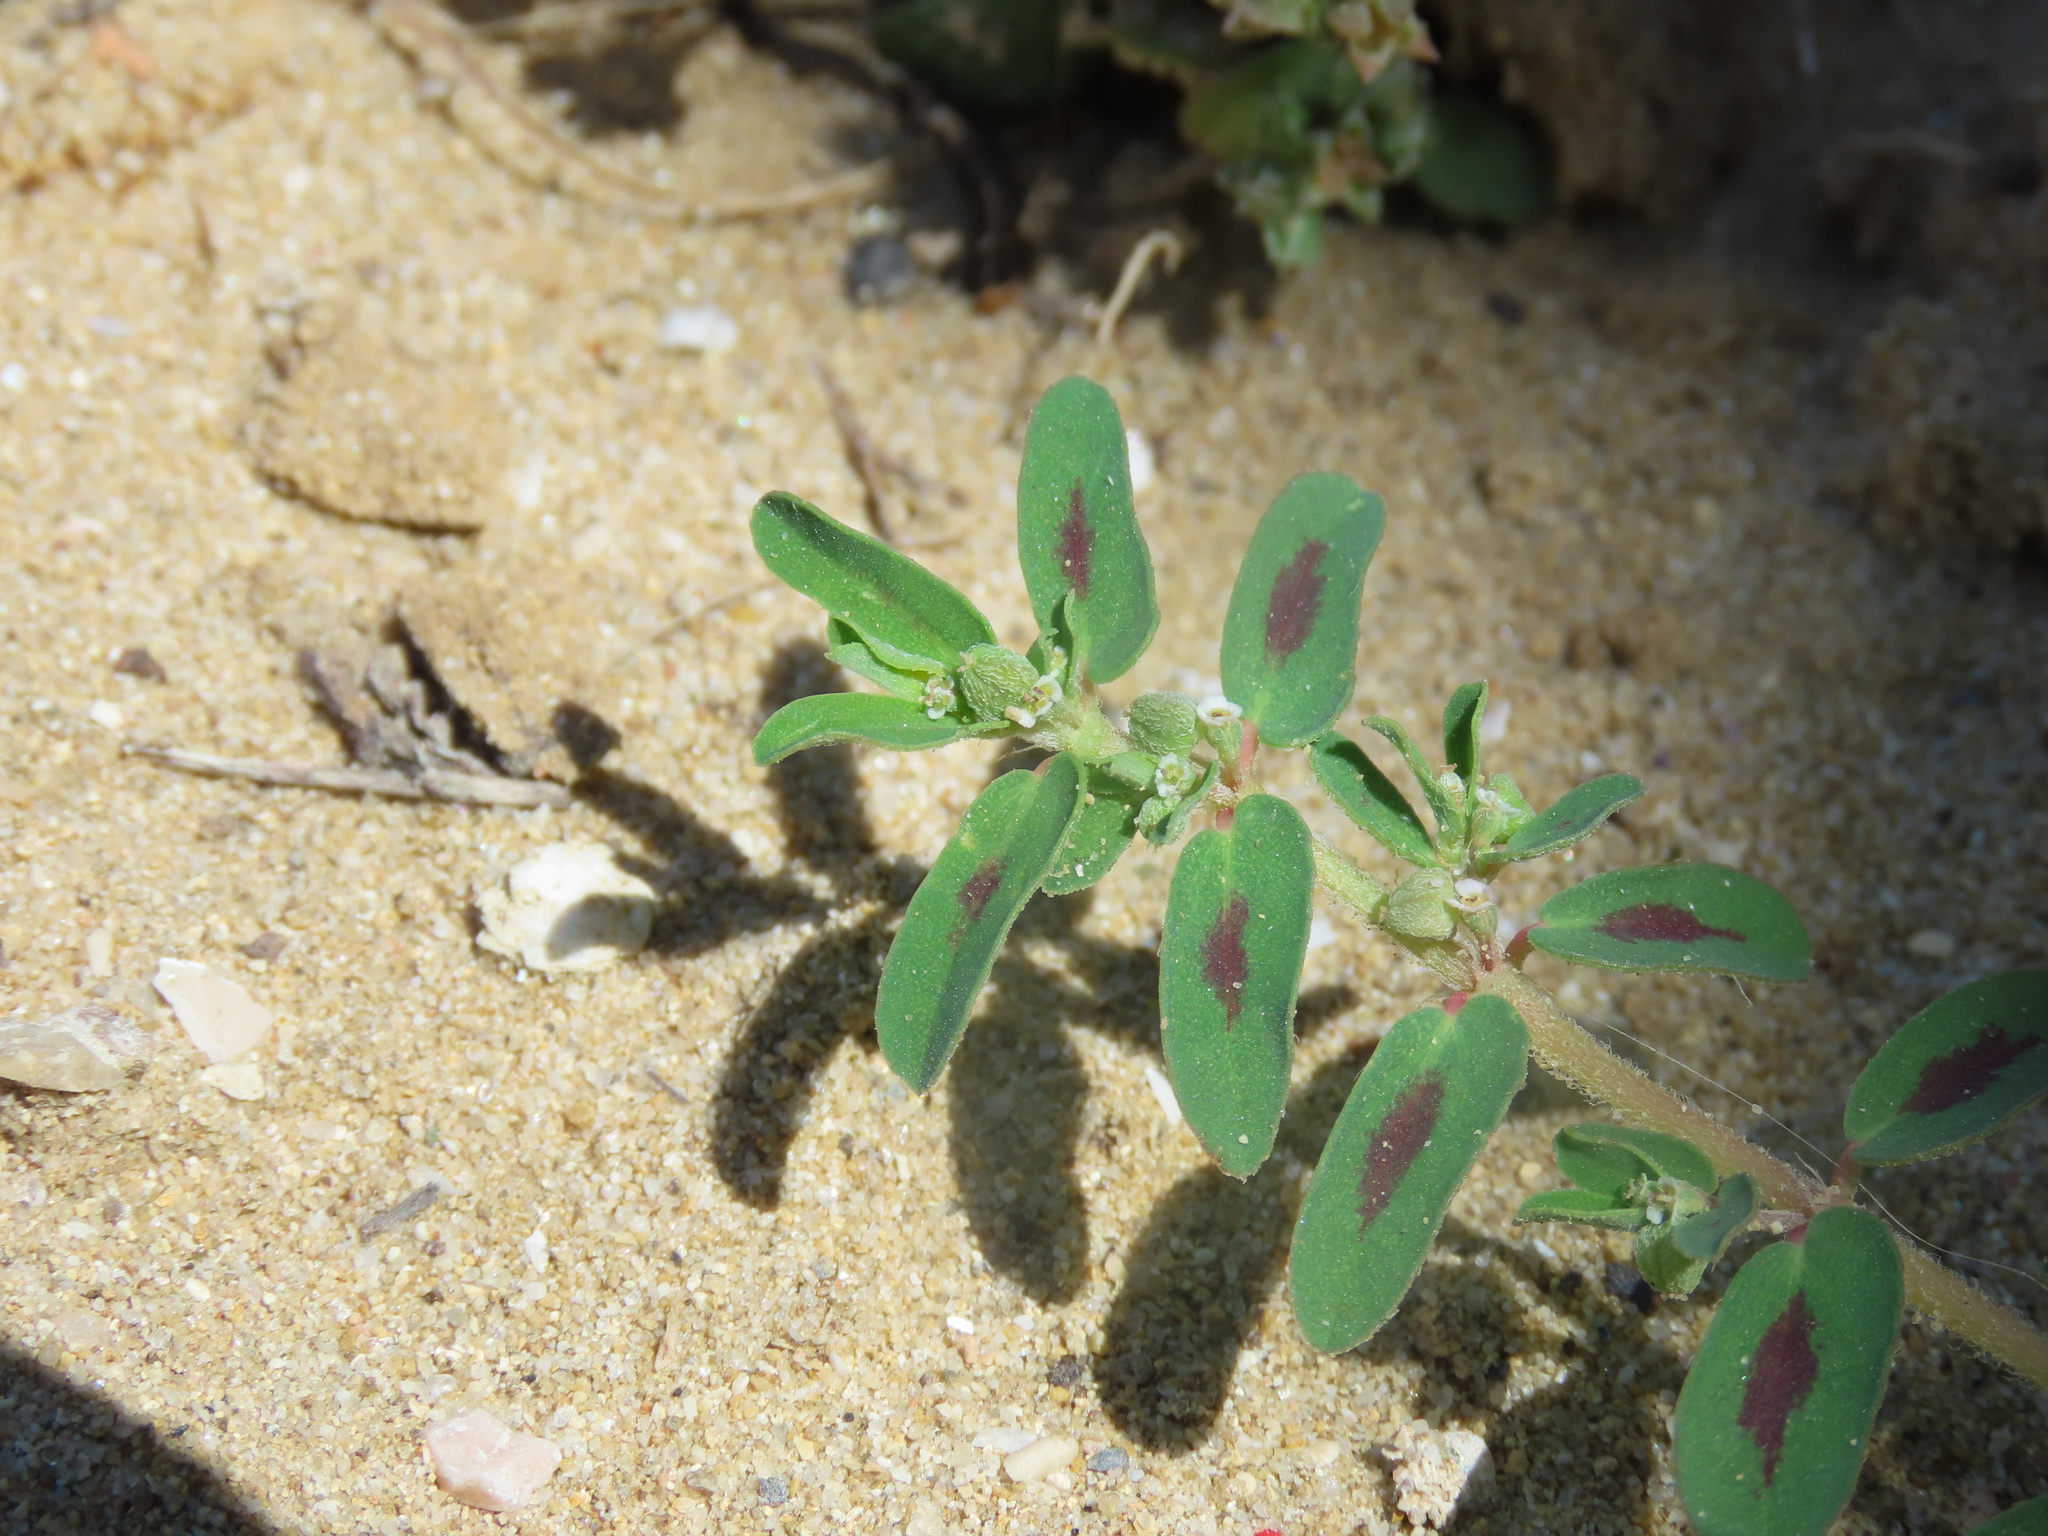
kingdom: Plantae
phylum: Tracheophyta
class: Magnoliopsida
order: Malpighiales
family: Euphorbiaceae
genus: Euphorbia
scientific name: Euphorbia maculata
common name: Spotted spurge
